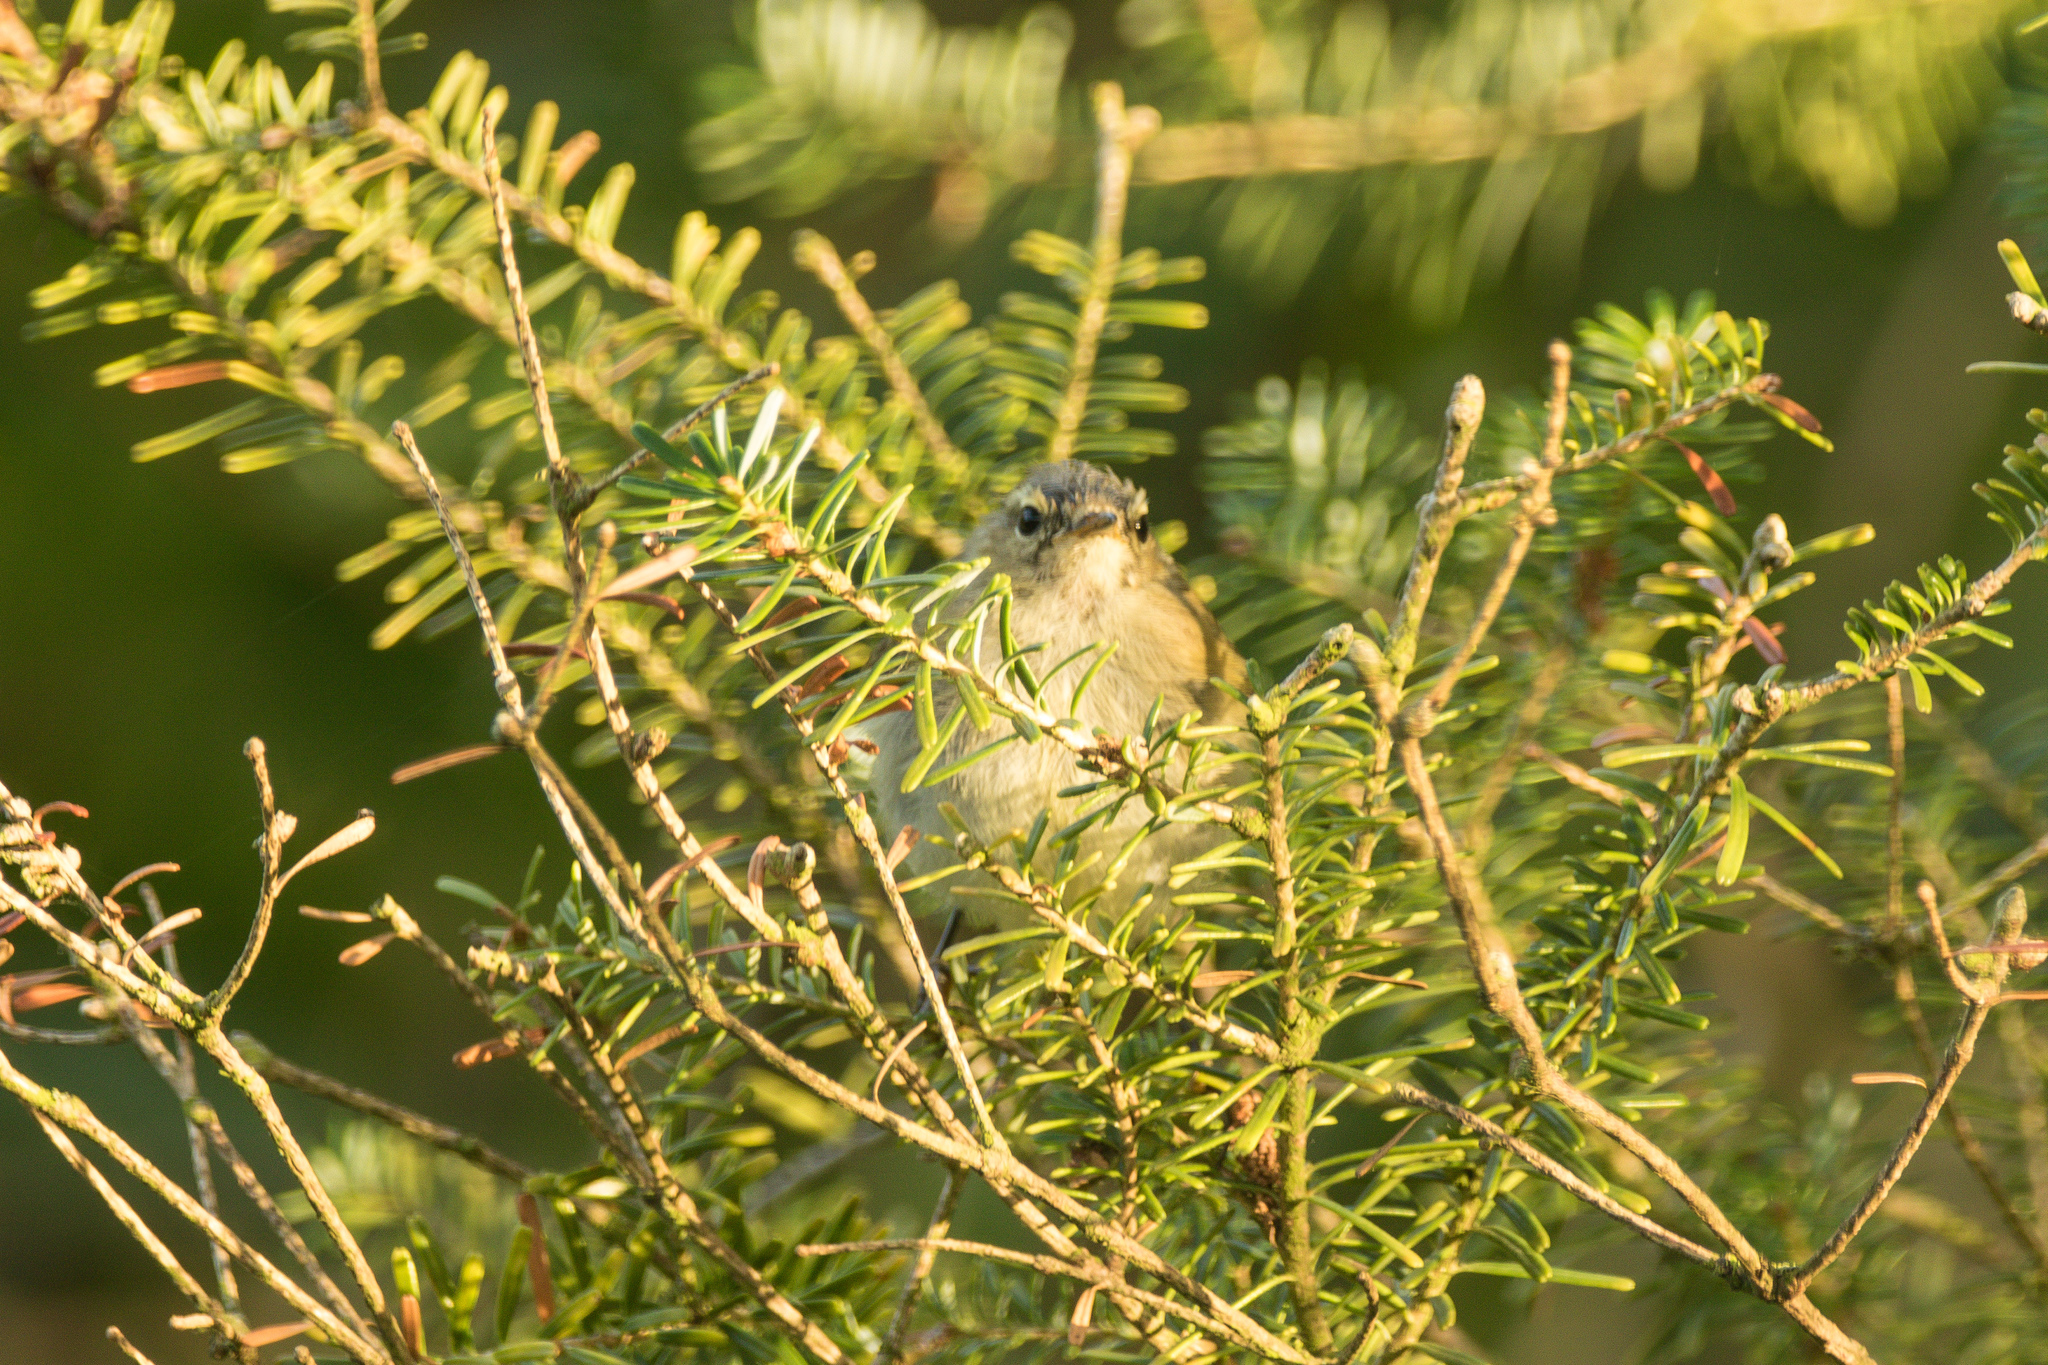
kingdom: Animalia
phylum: Chordata
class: Aves
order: Passeriformes
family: Phylloscopidae
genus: Phylloscopus
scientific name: Phylloscopus collybita
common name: Common chiffchaff
